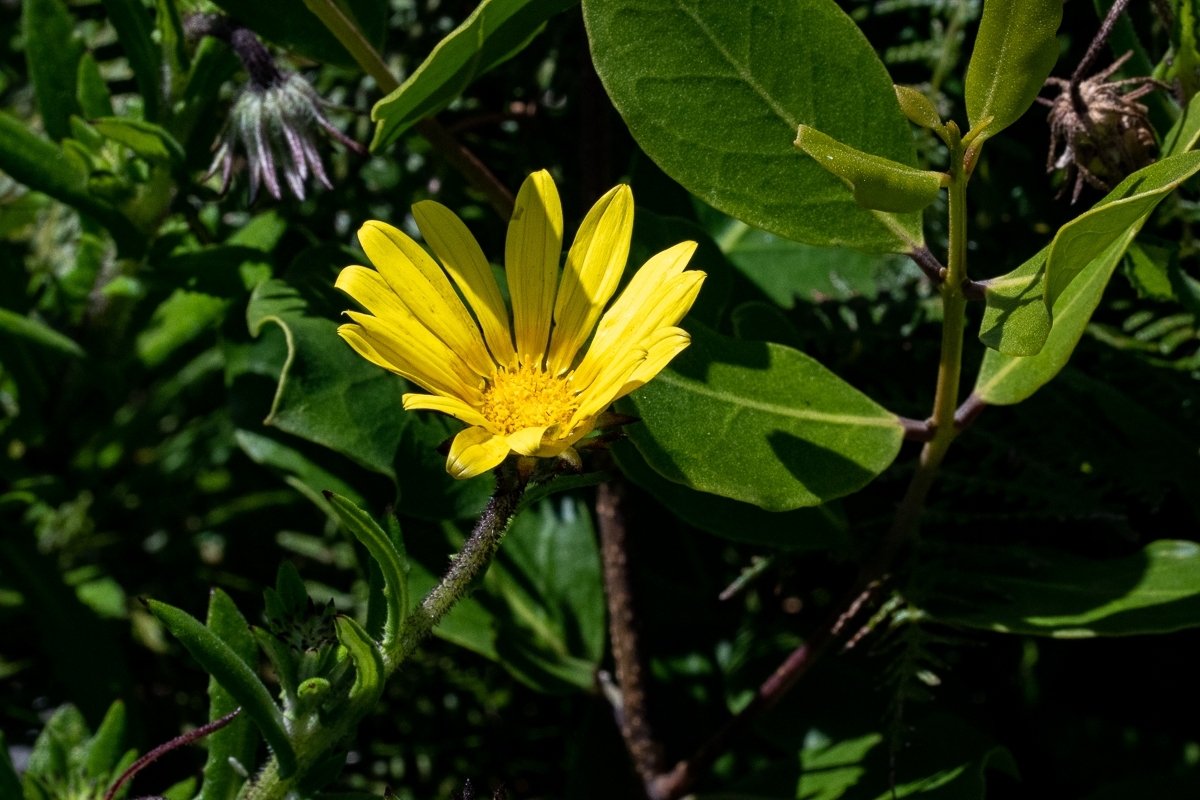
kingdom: Plantae
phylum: Tracheophyta
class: Magnoliopsida
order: Asterales
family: Asteraceae
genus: Arctotis
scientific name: Arctotis scabra
